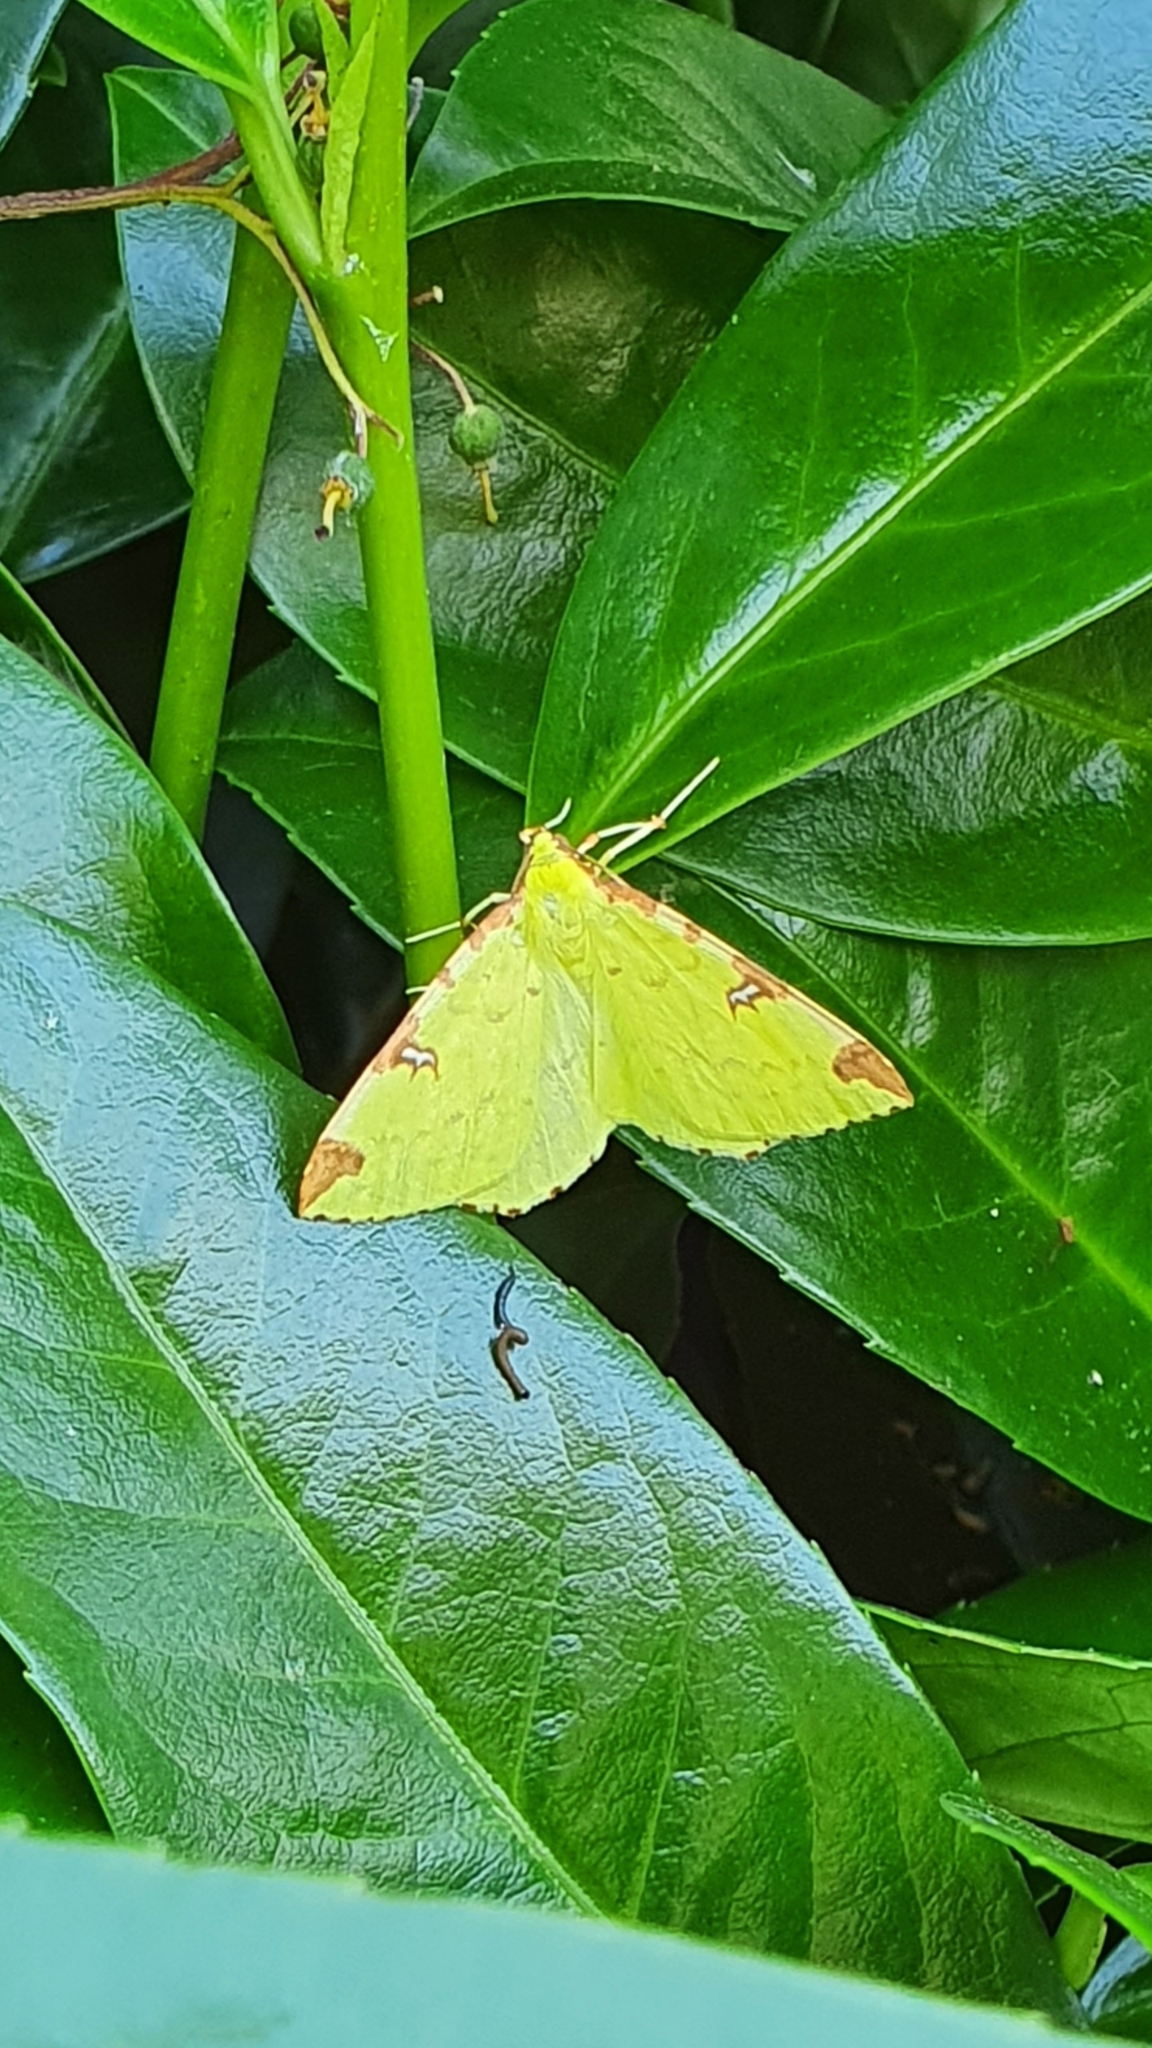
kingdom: Animalia
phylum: Arthropoda
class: Insecta
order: Lepidoptera
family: Geometridae
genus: Opisthograptis
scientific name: Opisthograptis luteolata
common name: Brimstone moth
